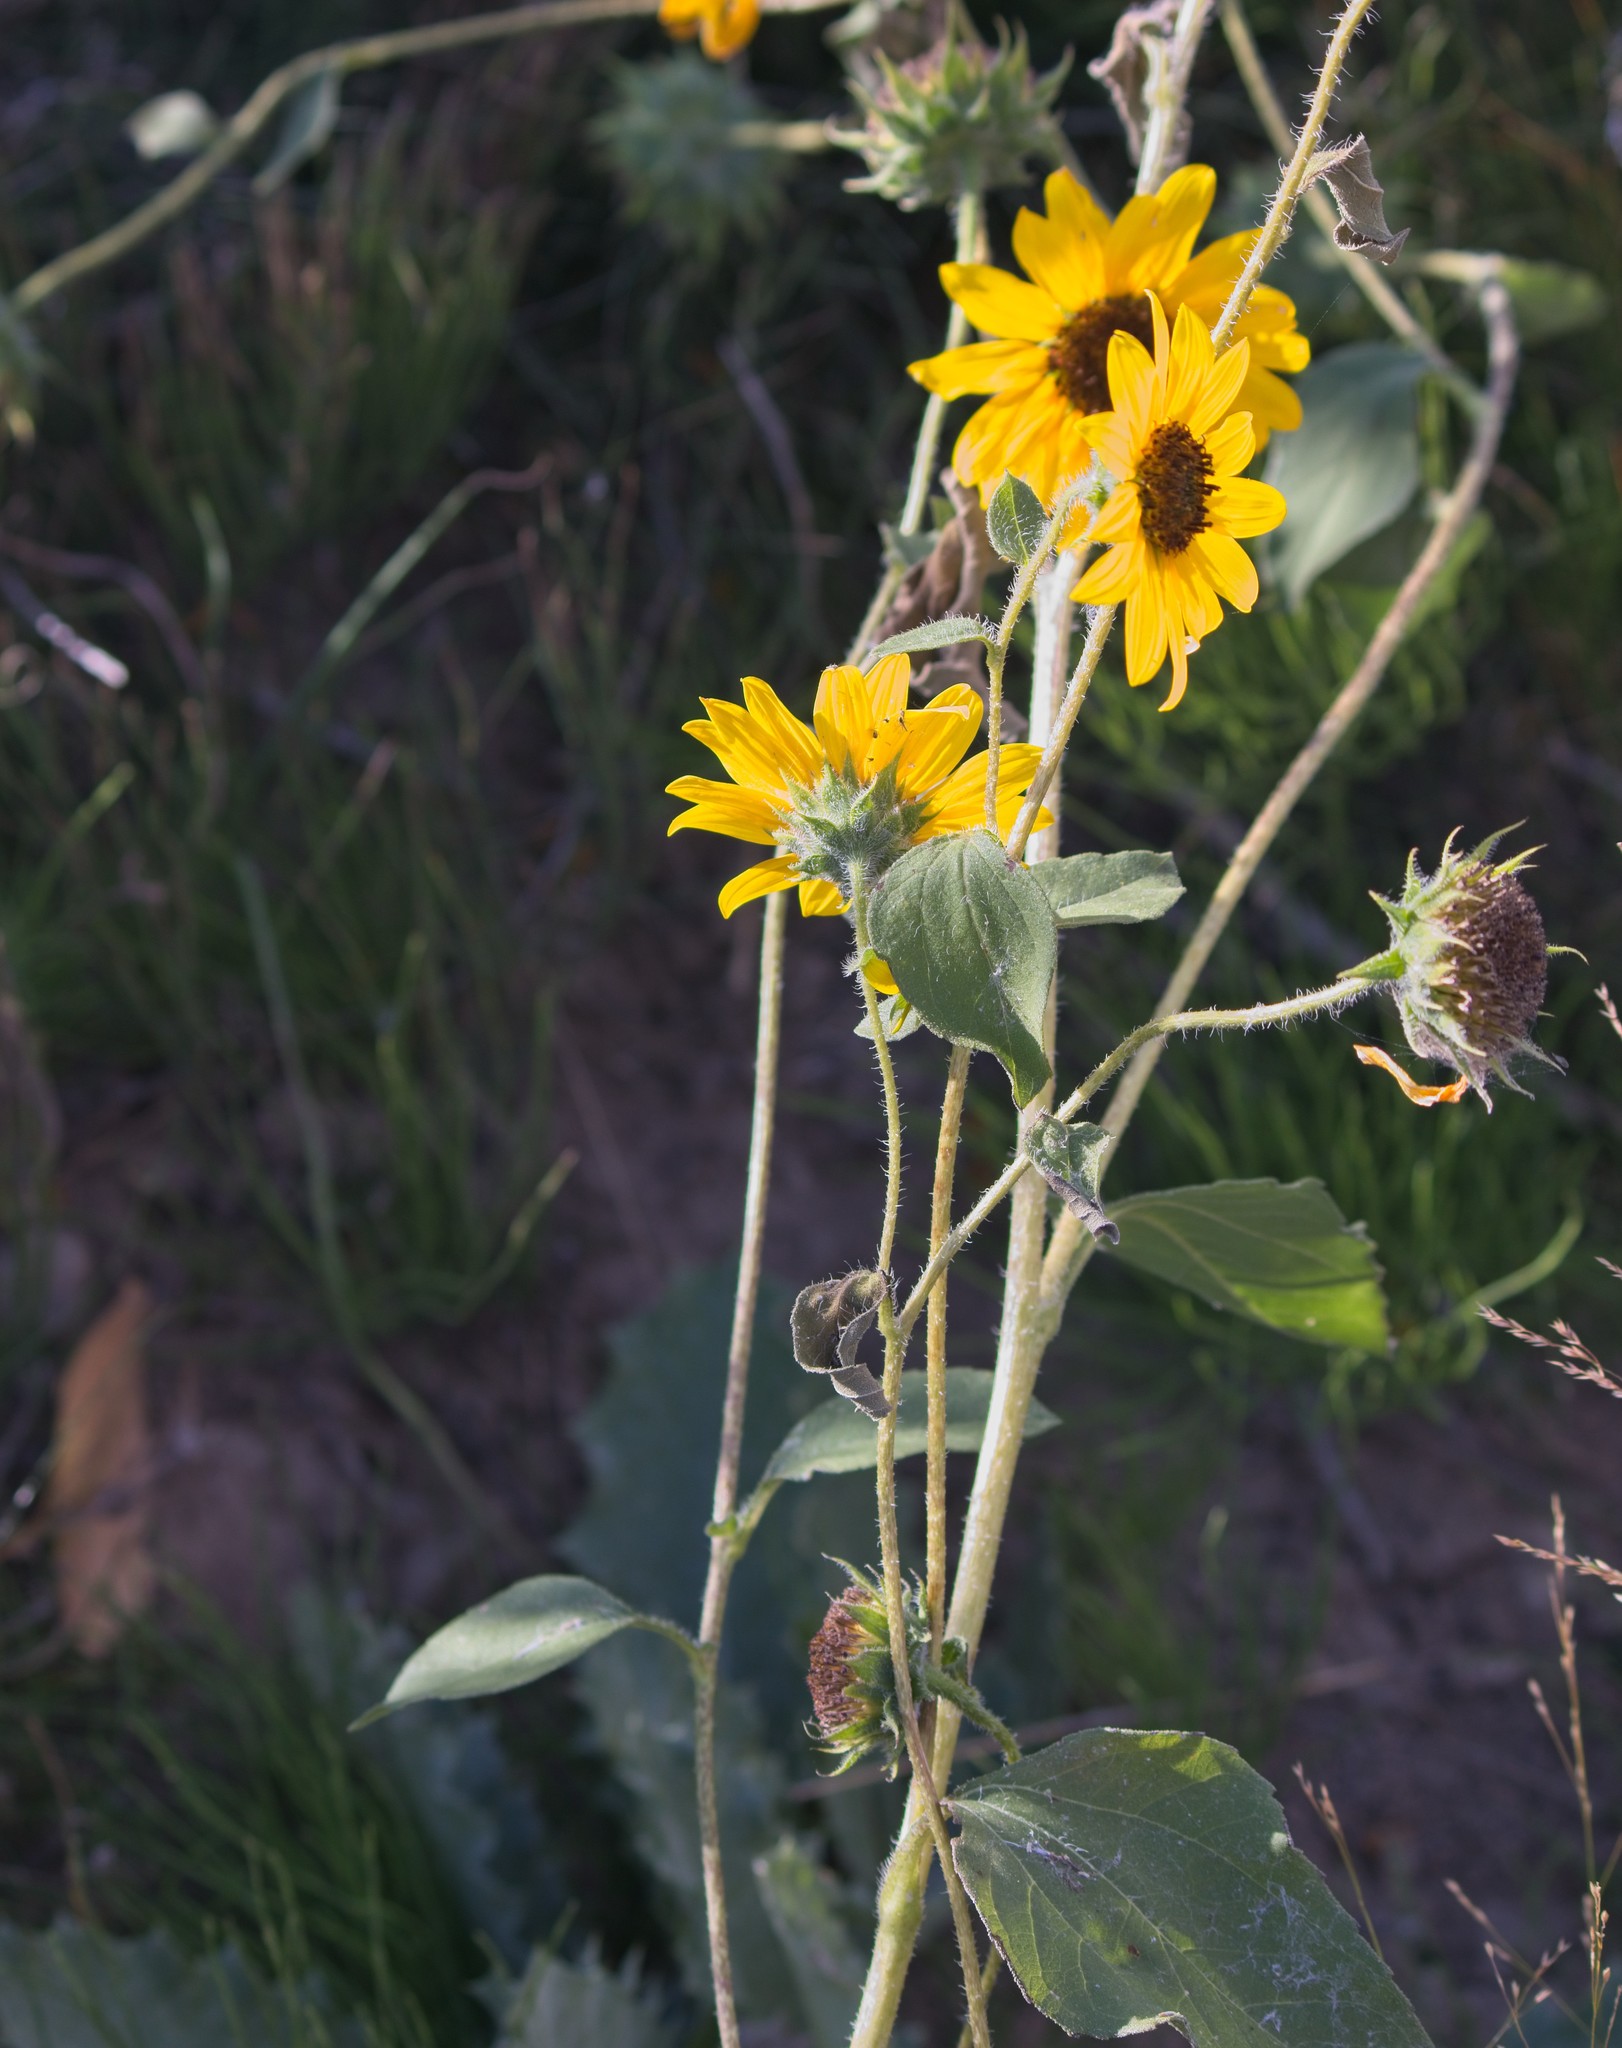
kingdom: Plantae
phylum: Tracheophyta
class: Magnoliopsida
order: Asterales
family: Asteraceae
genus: Helianthus
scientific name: Helianthus annuus
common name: Sunflower
